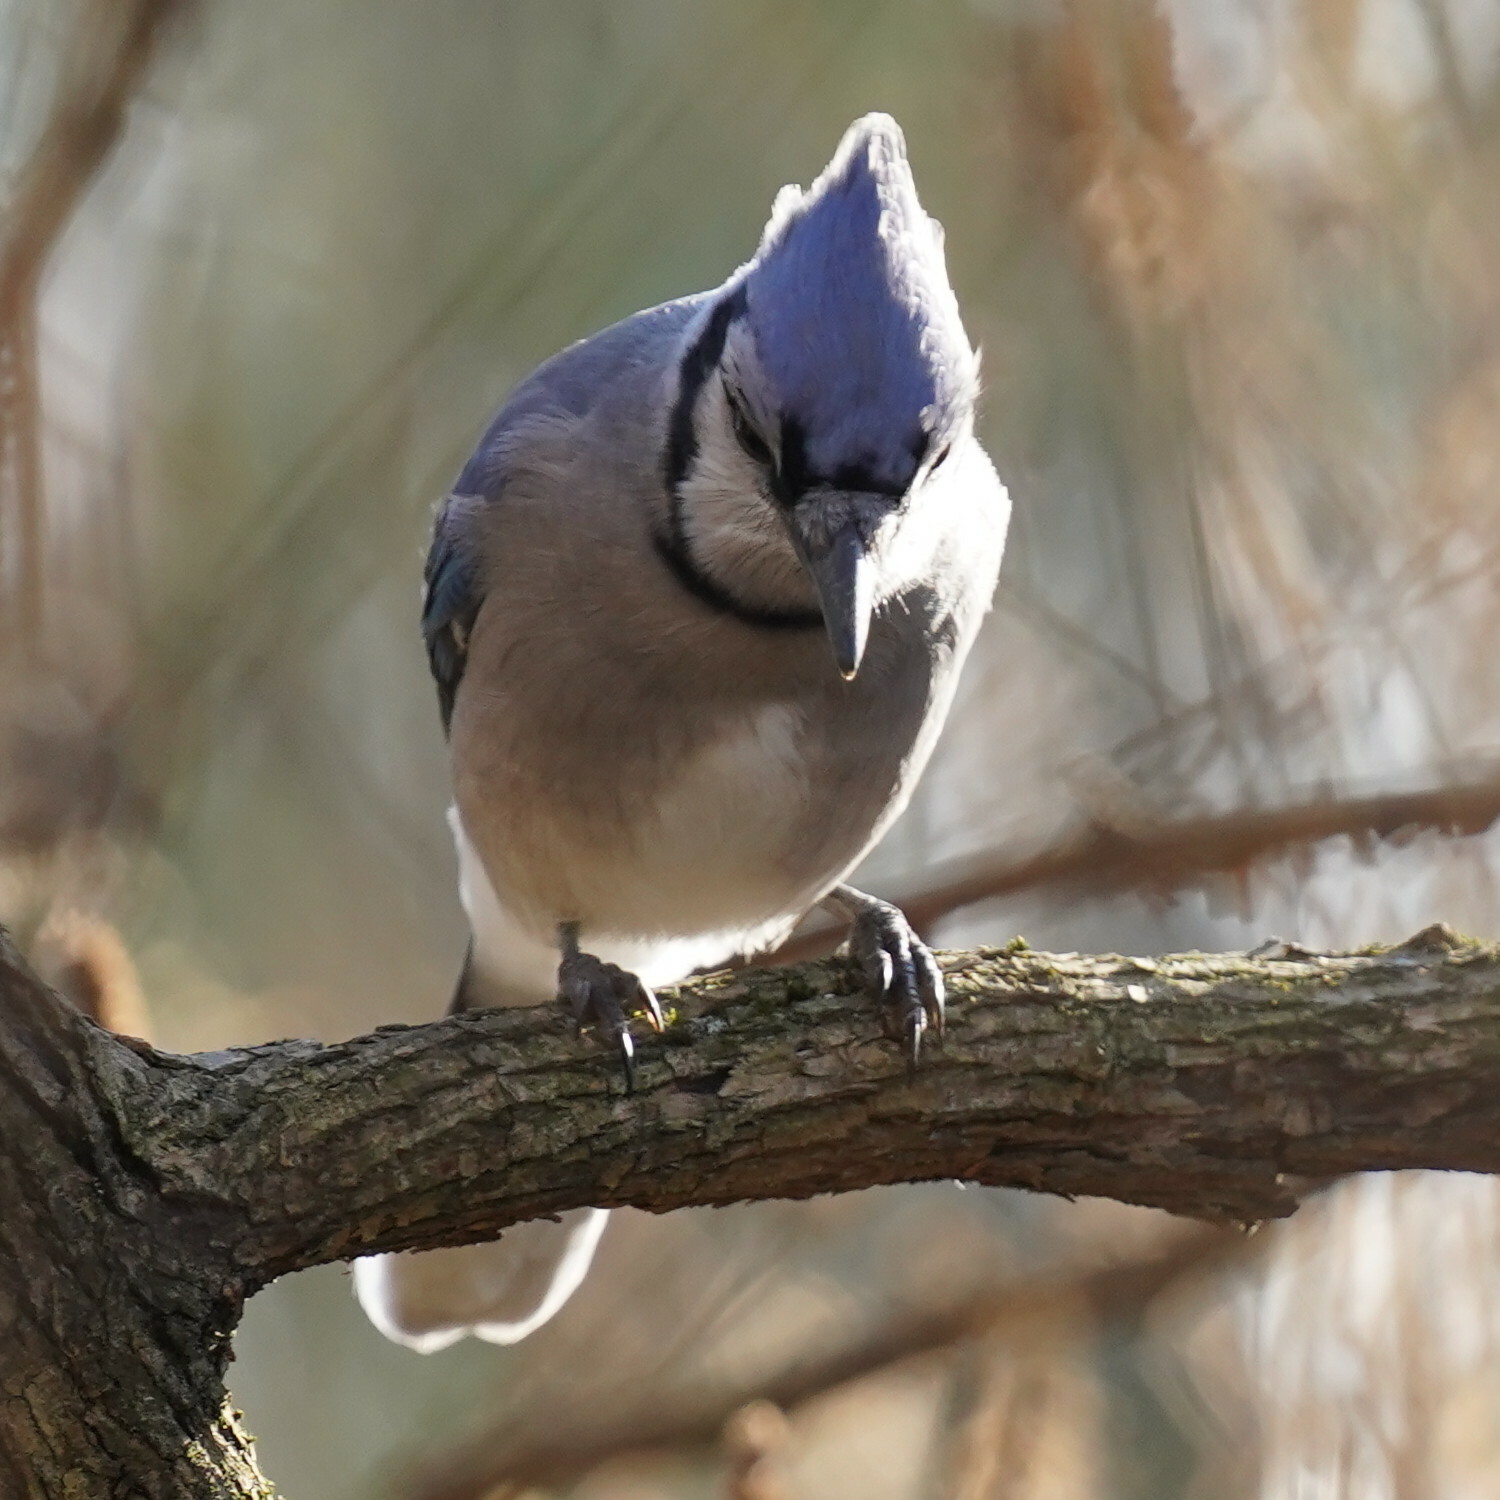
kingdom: Animalia
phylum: Chordata
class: Aves
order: Passeriformes
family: Corvidae
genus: Cyanocitta
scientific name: Cyanocitta cristata
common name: Blue jay
